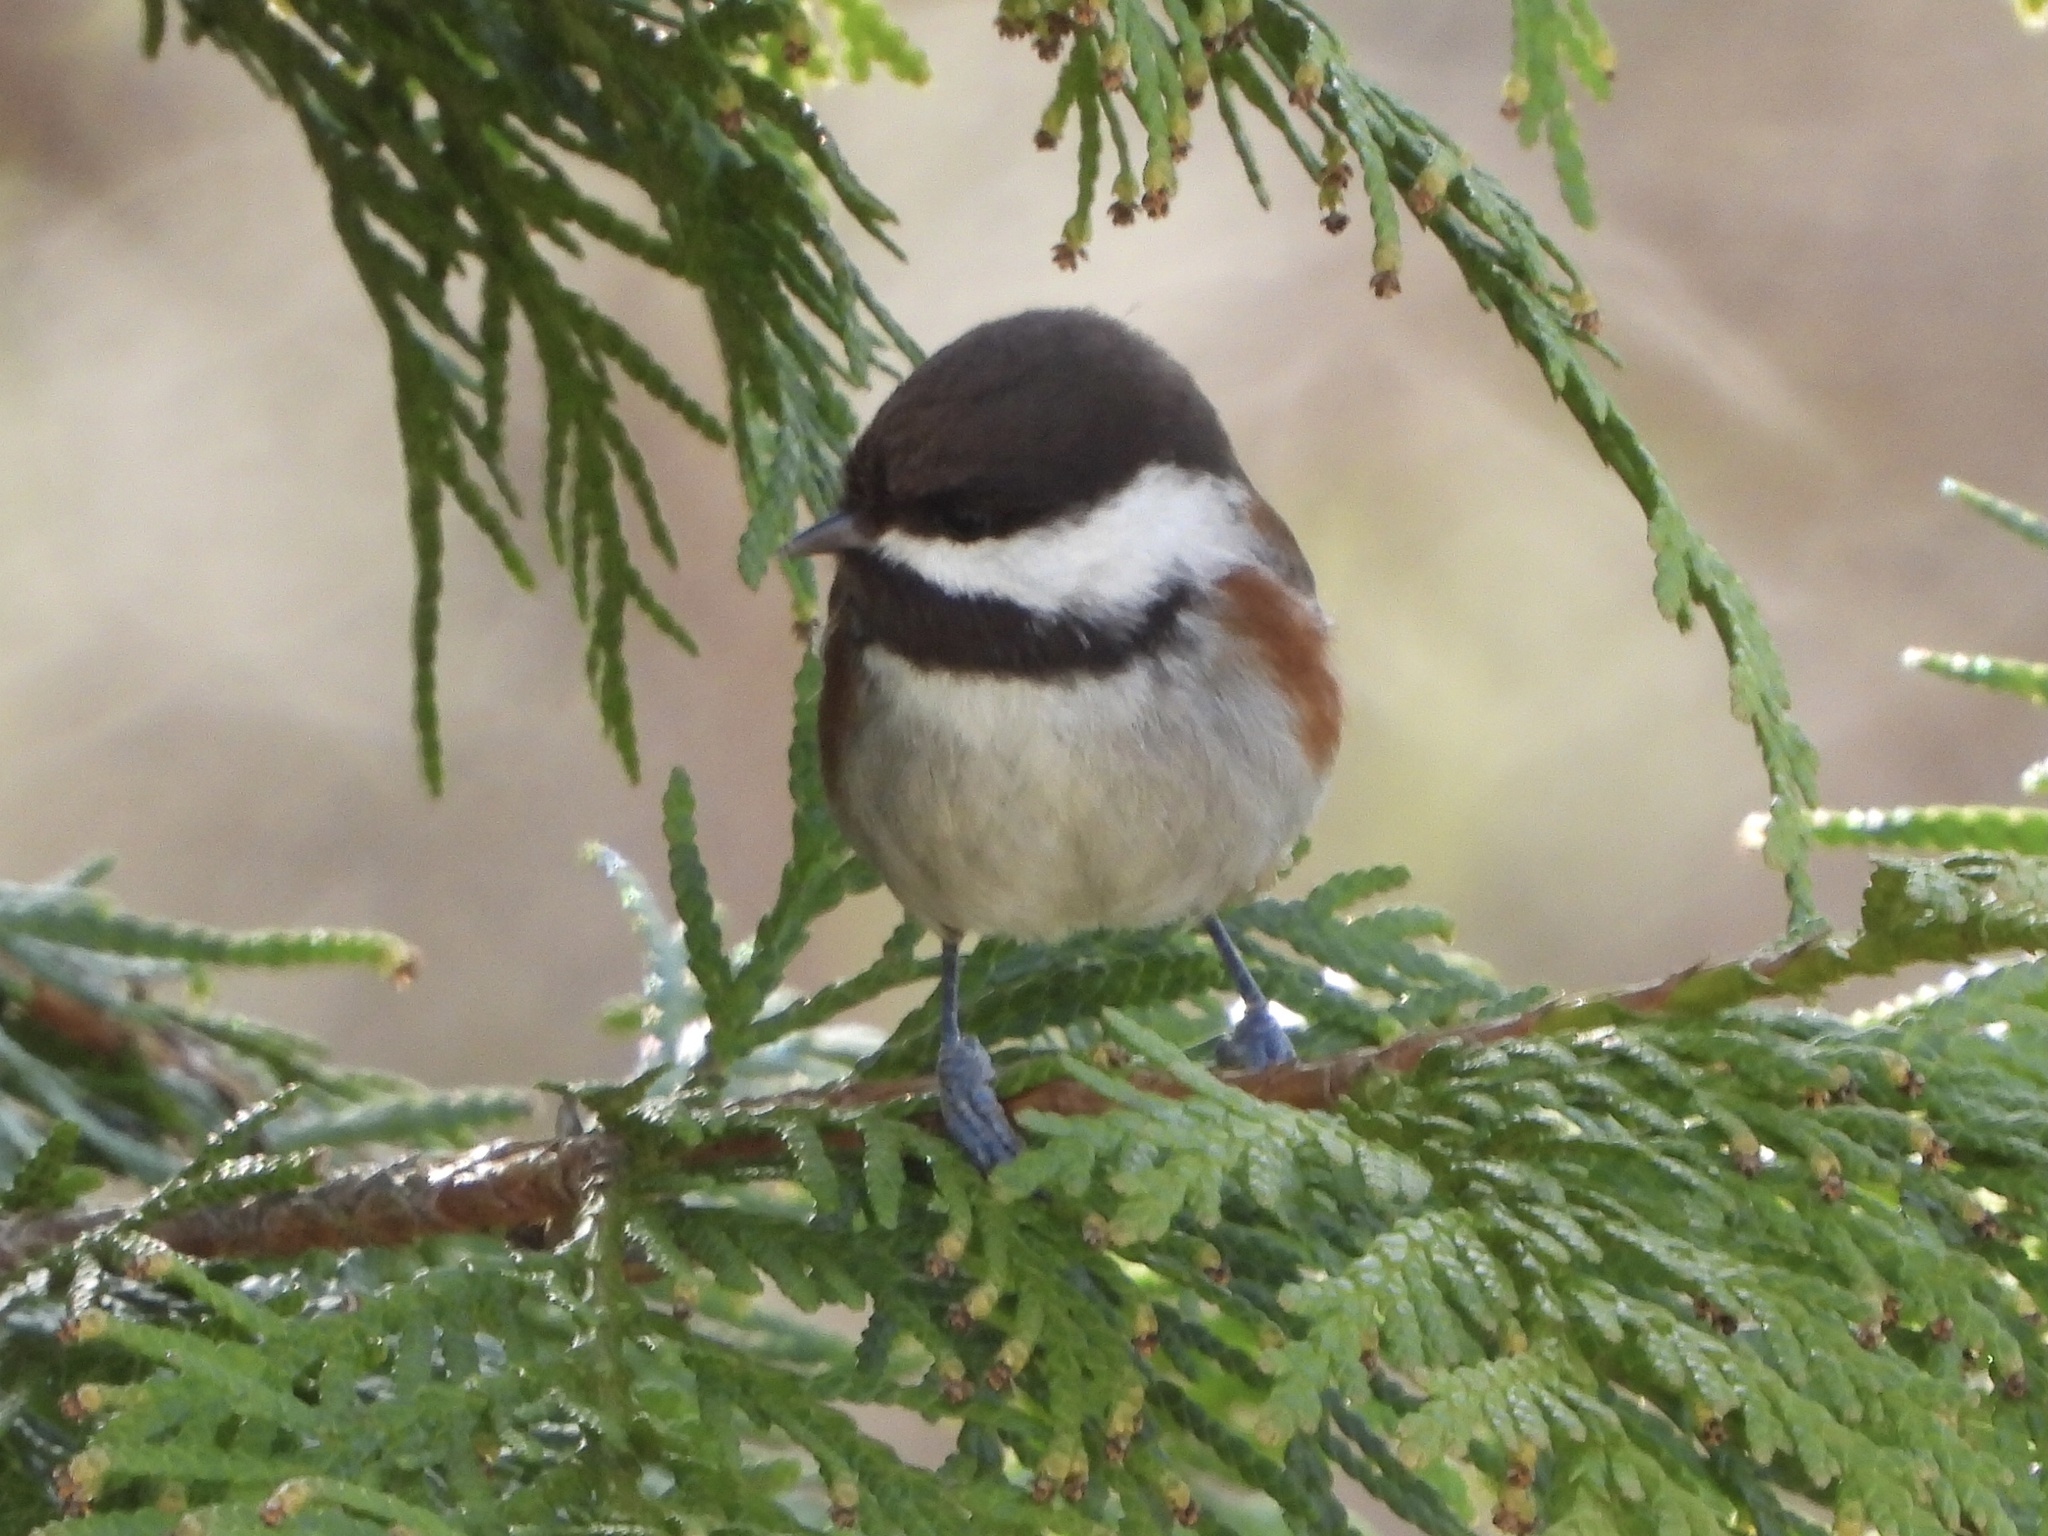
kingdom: Animalia
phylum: Chordata
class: Aves
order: Passeriformes
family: Paridae
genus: Poecile
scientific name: Poecile rufescens
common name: Chestnut-backed chickadee
